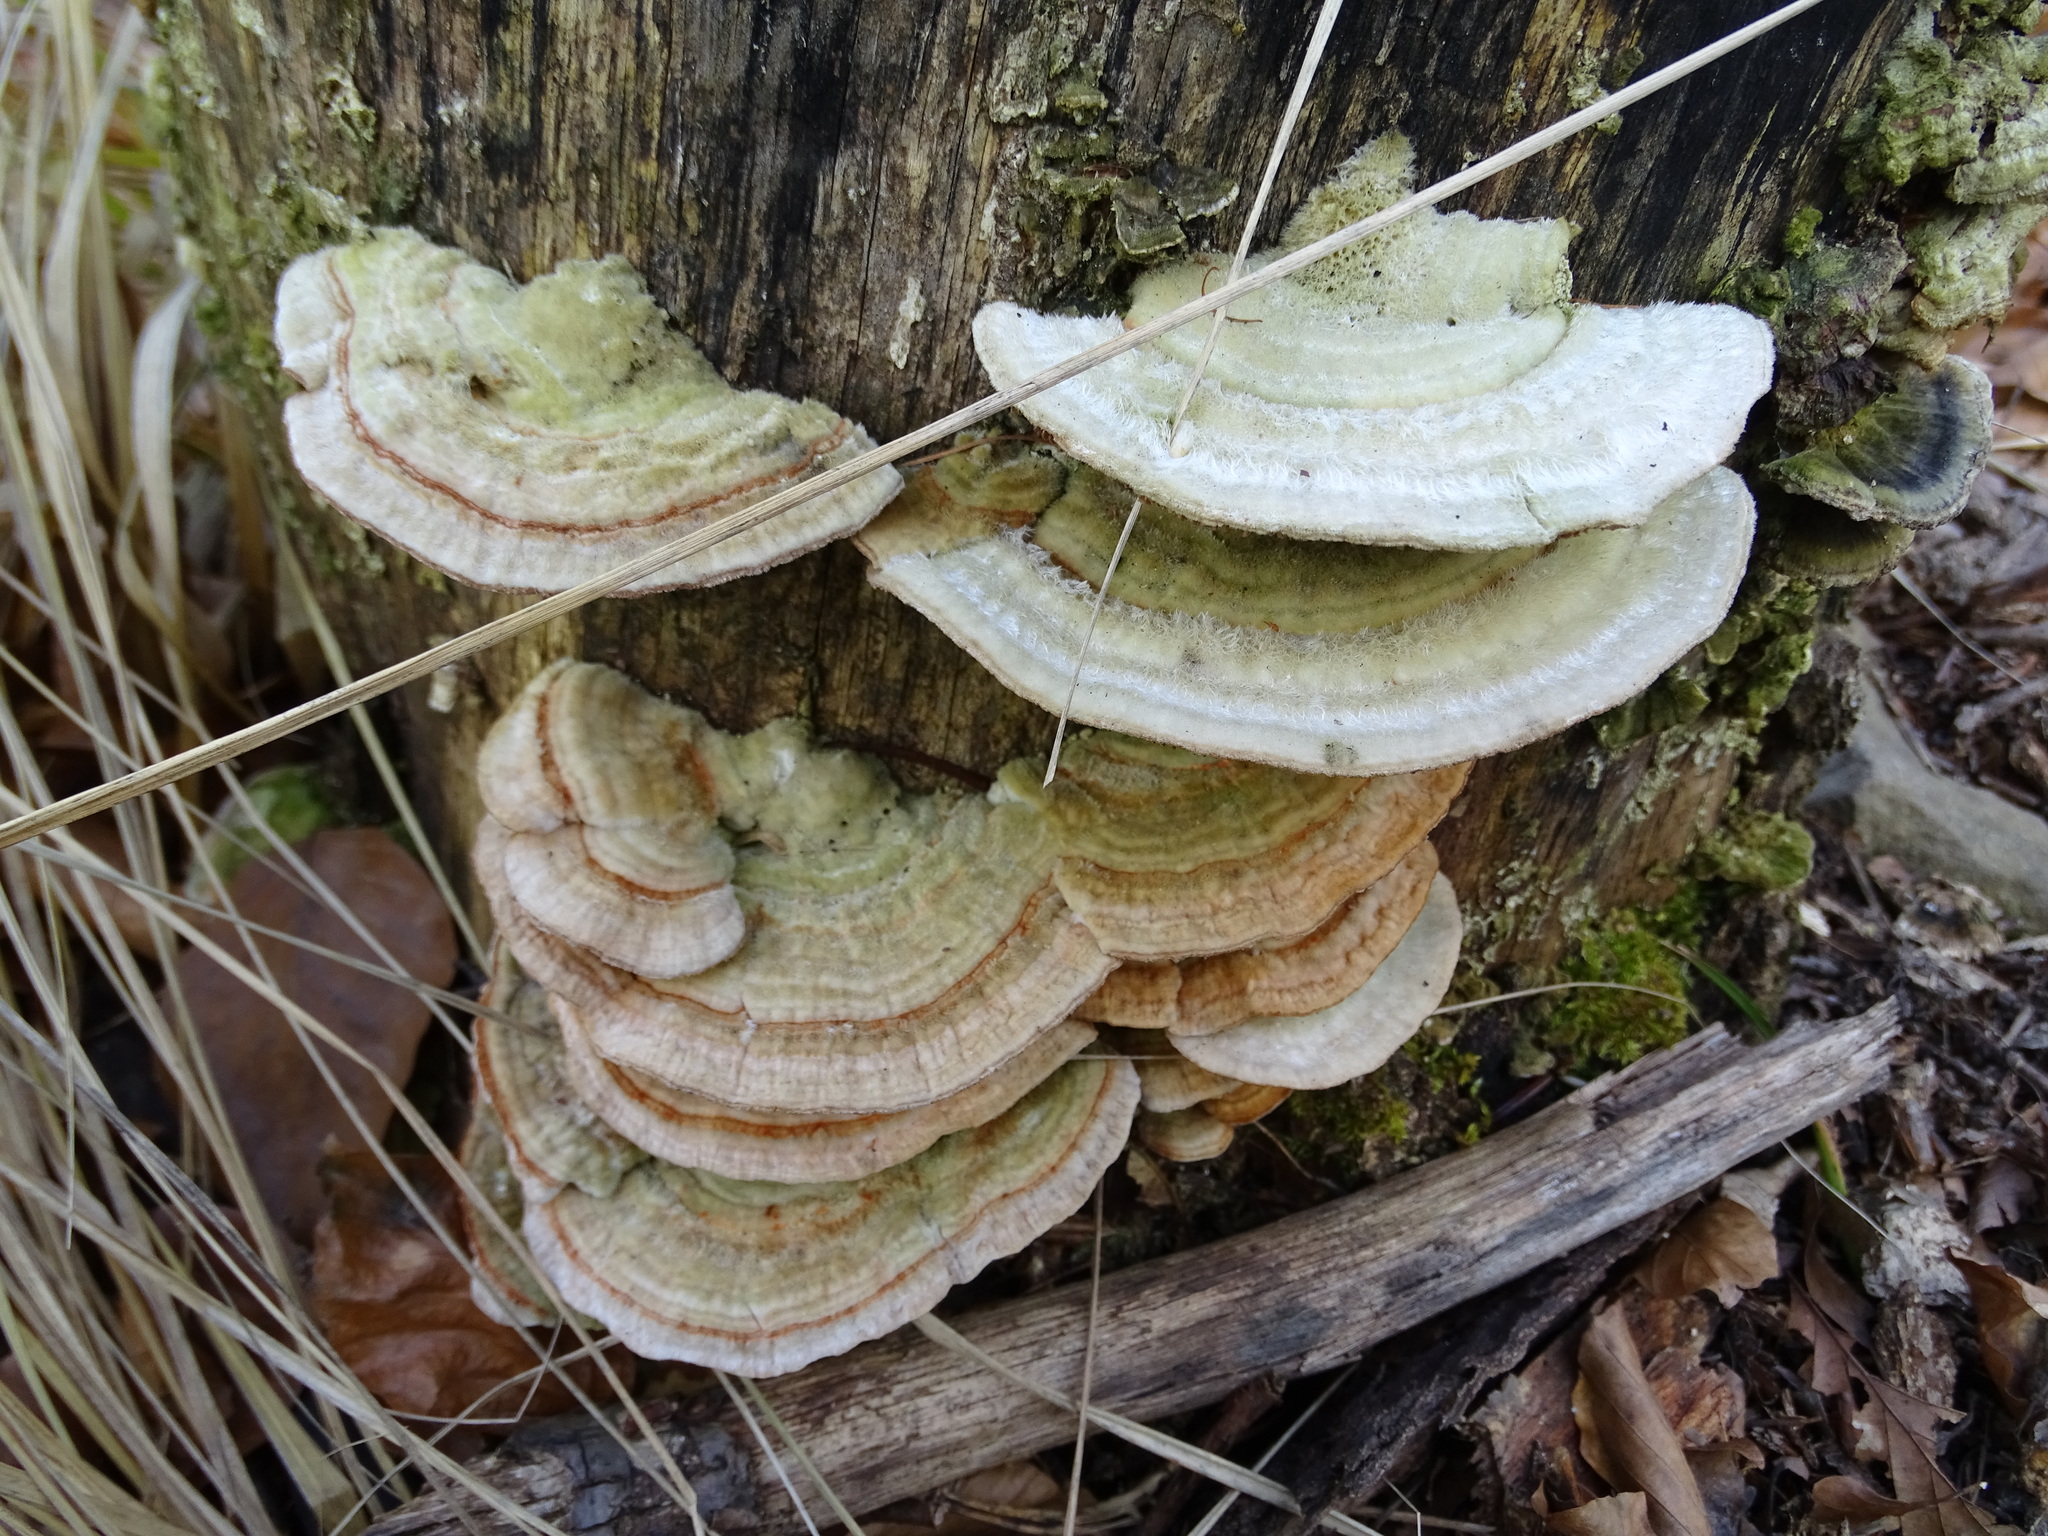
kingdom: Fungi
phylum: Basidiomycota
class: Agaricomycetes
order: Polyporales
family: Polyporaceae
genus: Lenzites
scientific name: Lenzites betulinus
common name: Birch mazegill
